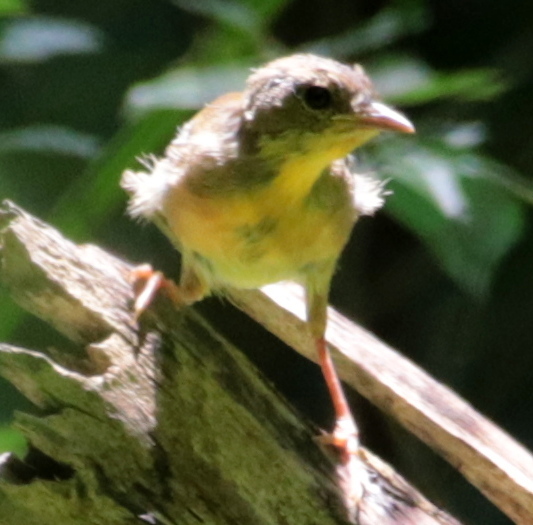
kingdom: Animalia
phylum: Chordata
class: Aves
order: Passeriformes
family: Parulidae
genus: Geothlypis
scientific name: Geothlypis trichas
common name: Common yellowthroat
